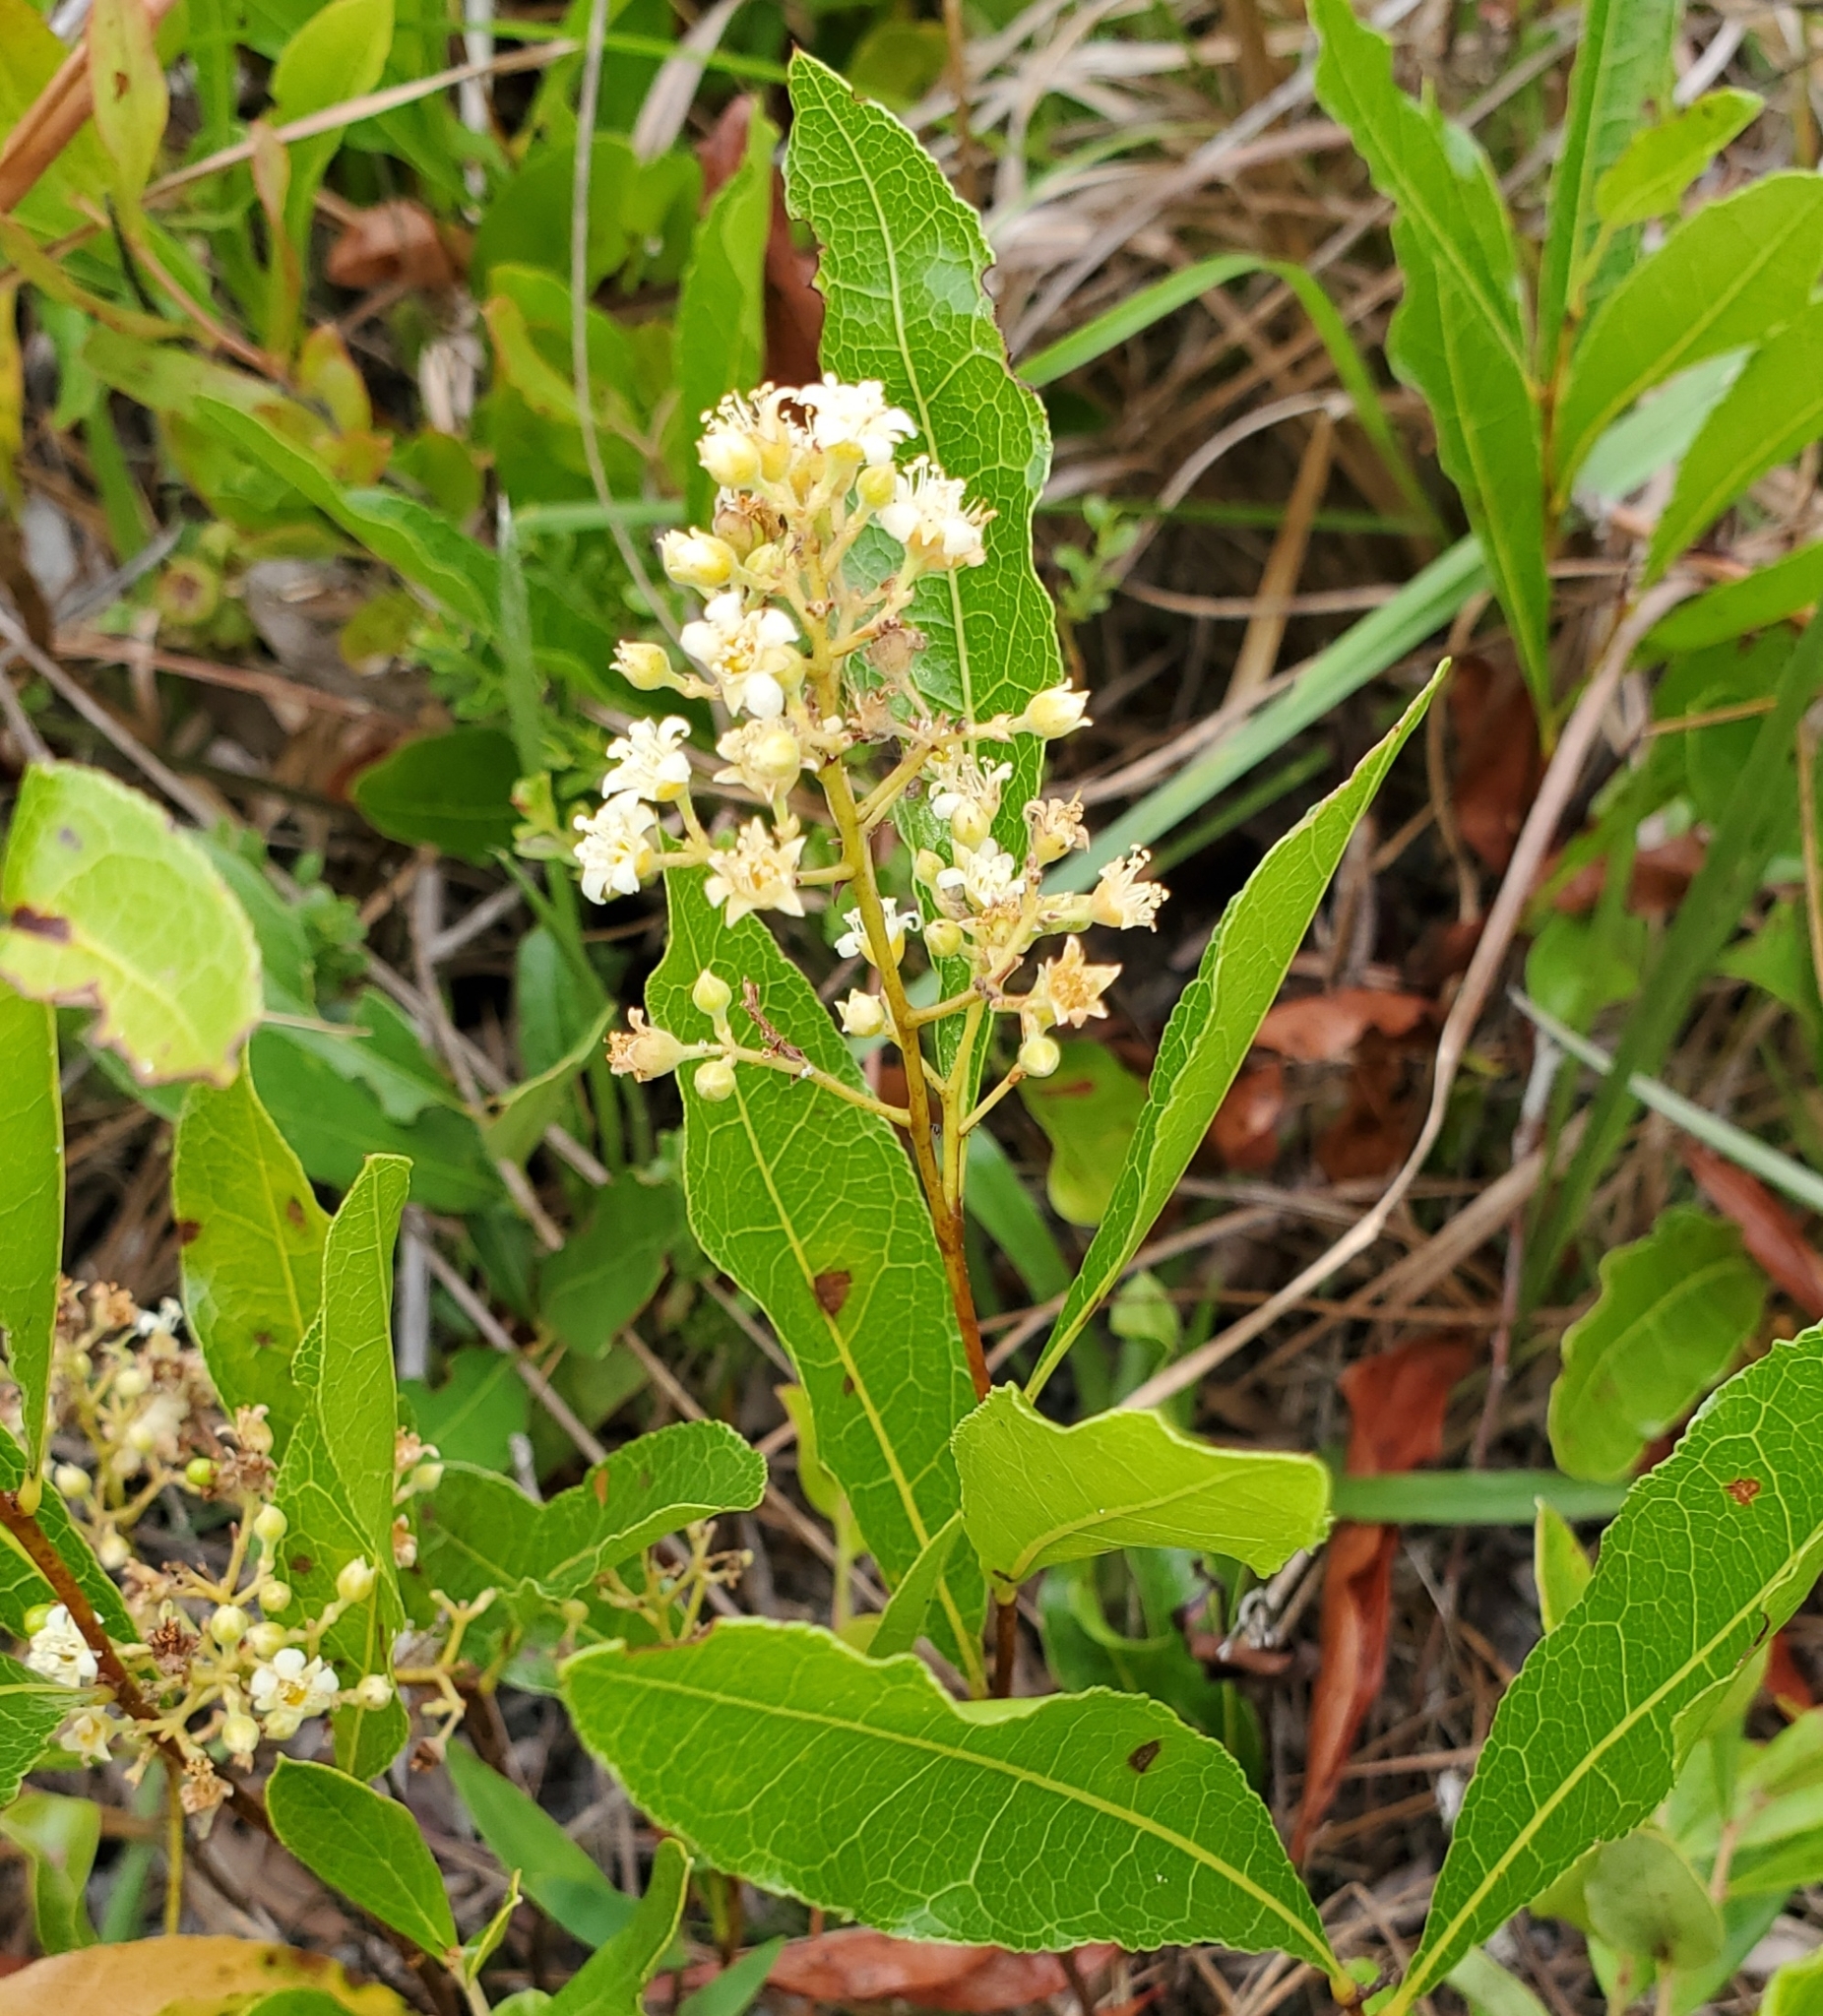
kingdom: Plantae
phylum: Tracheophyta
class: Magnoliopsida
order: Malpighiales
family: Chrysobalanaceae
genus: Geobalanus
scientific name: Geobalanus oblongifolius
